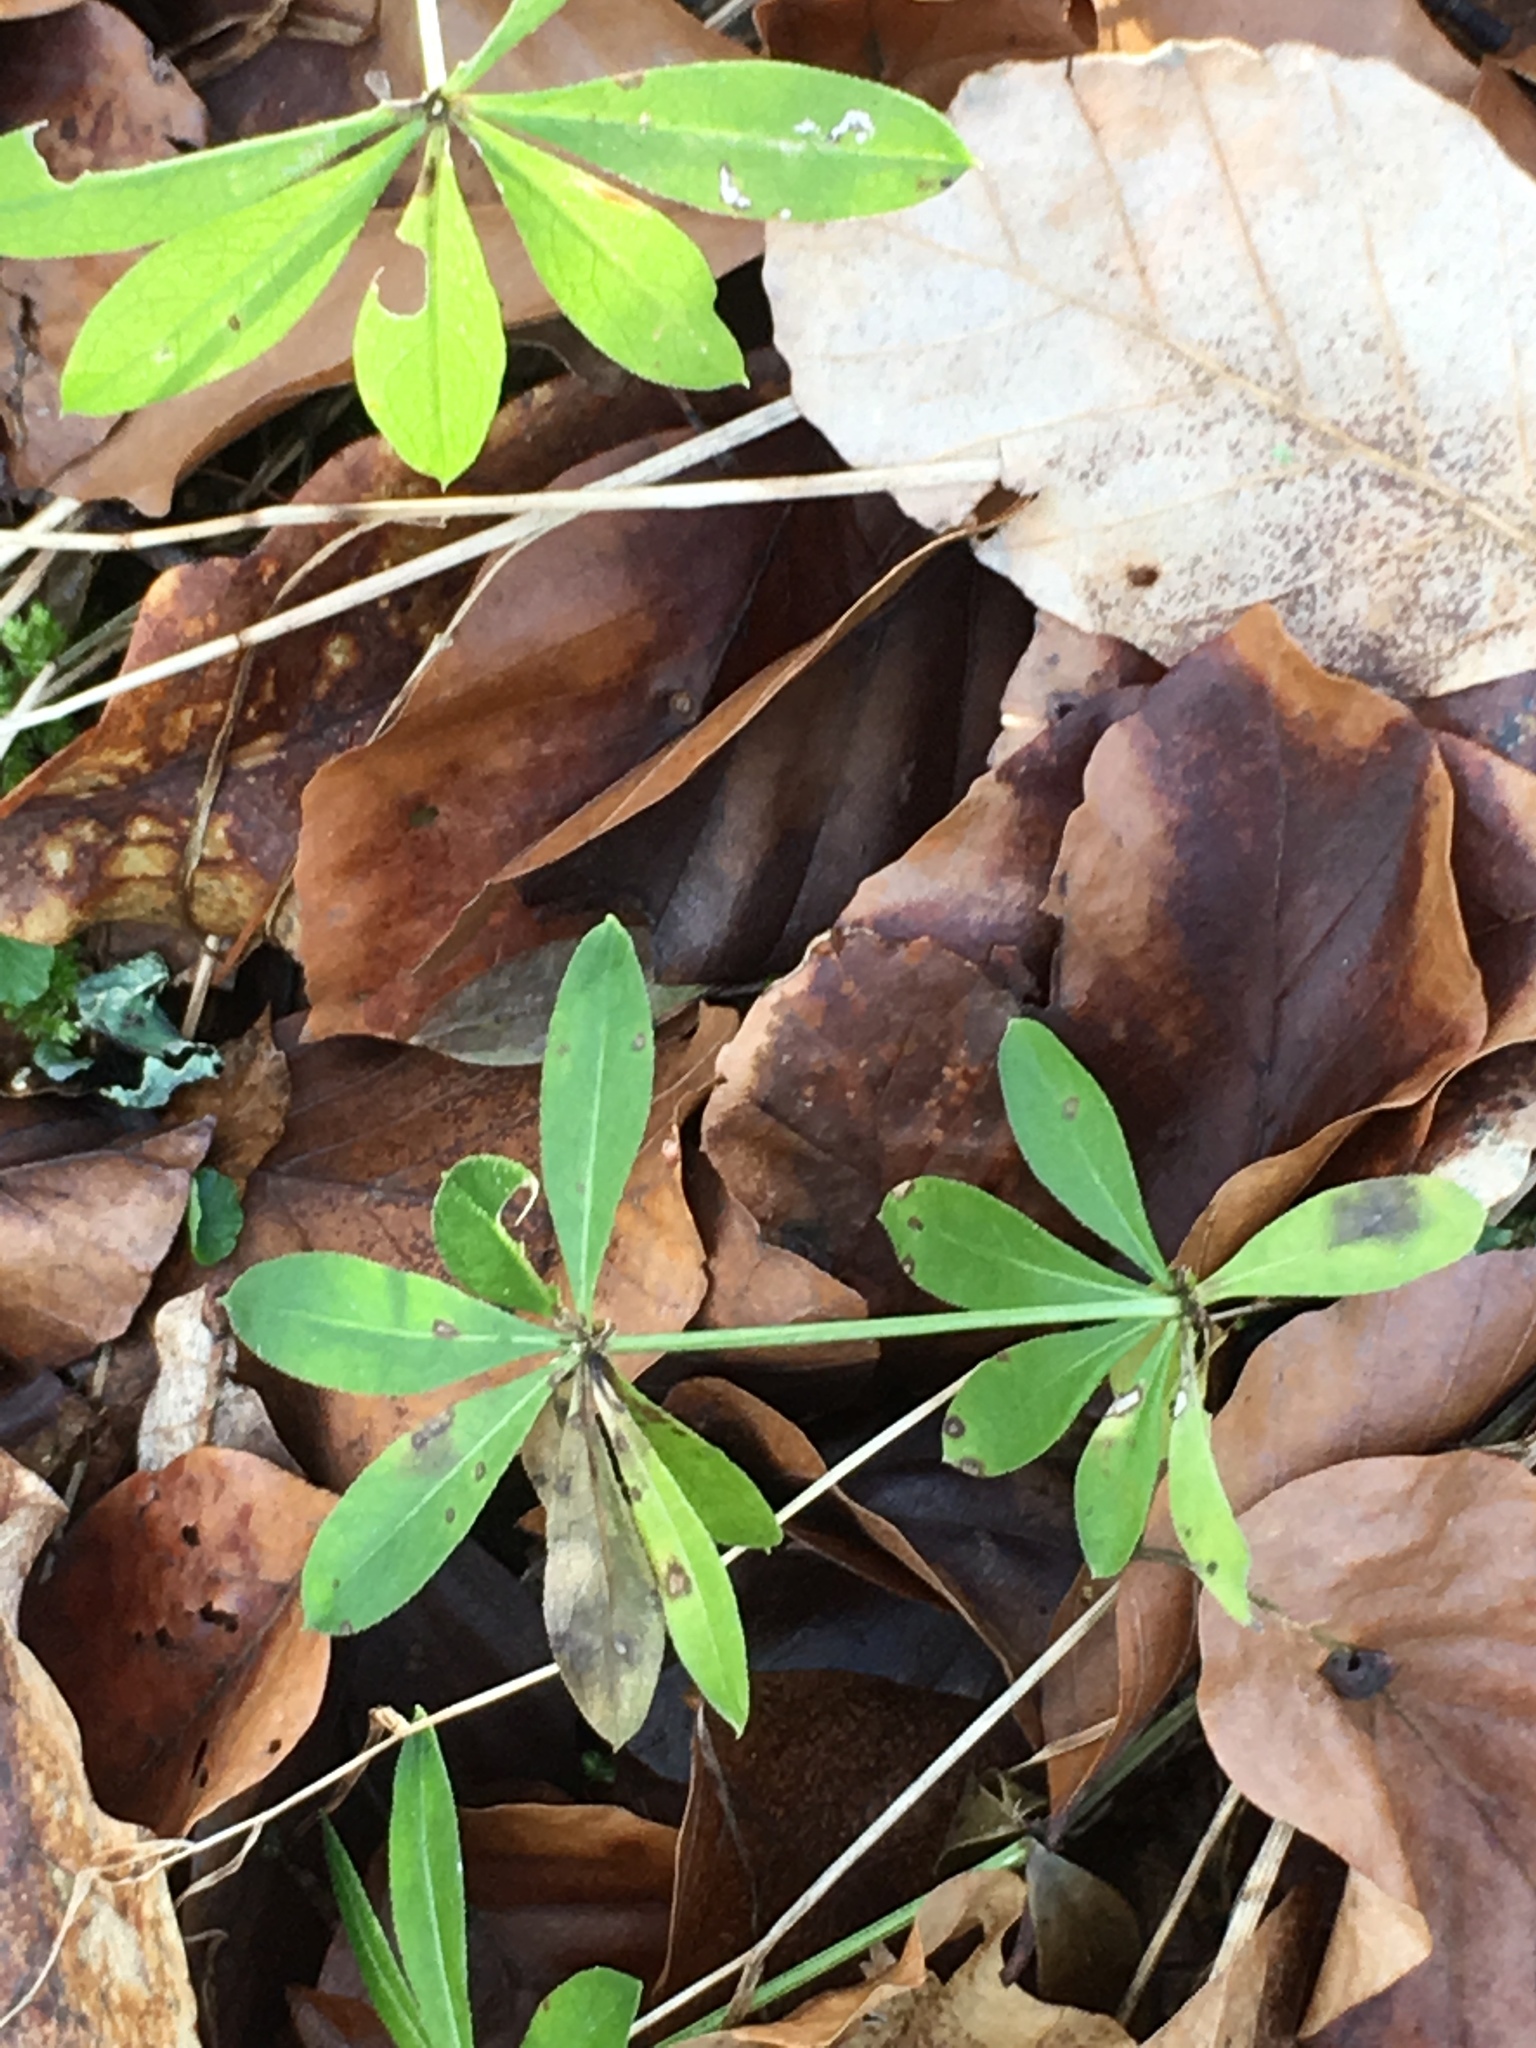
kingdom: Plantae
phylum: Tracheophyta
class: Magnoliopsida
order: Gentianales
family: Rubiaceae
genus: Galium
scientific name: Galium odoratum
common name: Sweet woodruff
